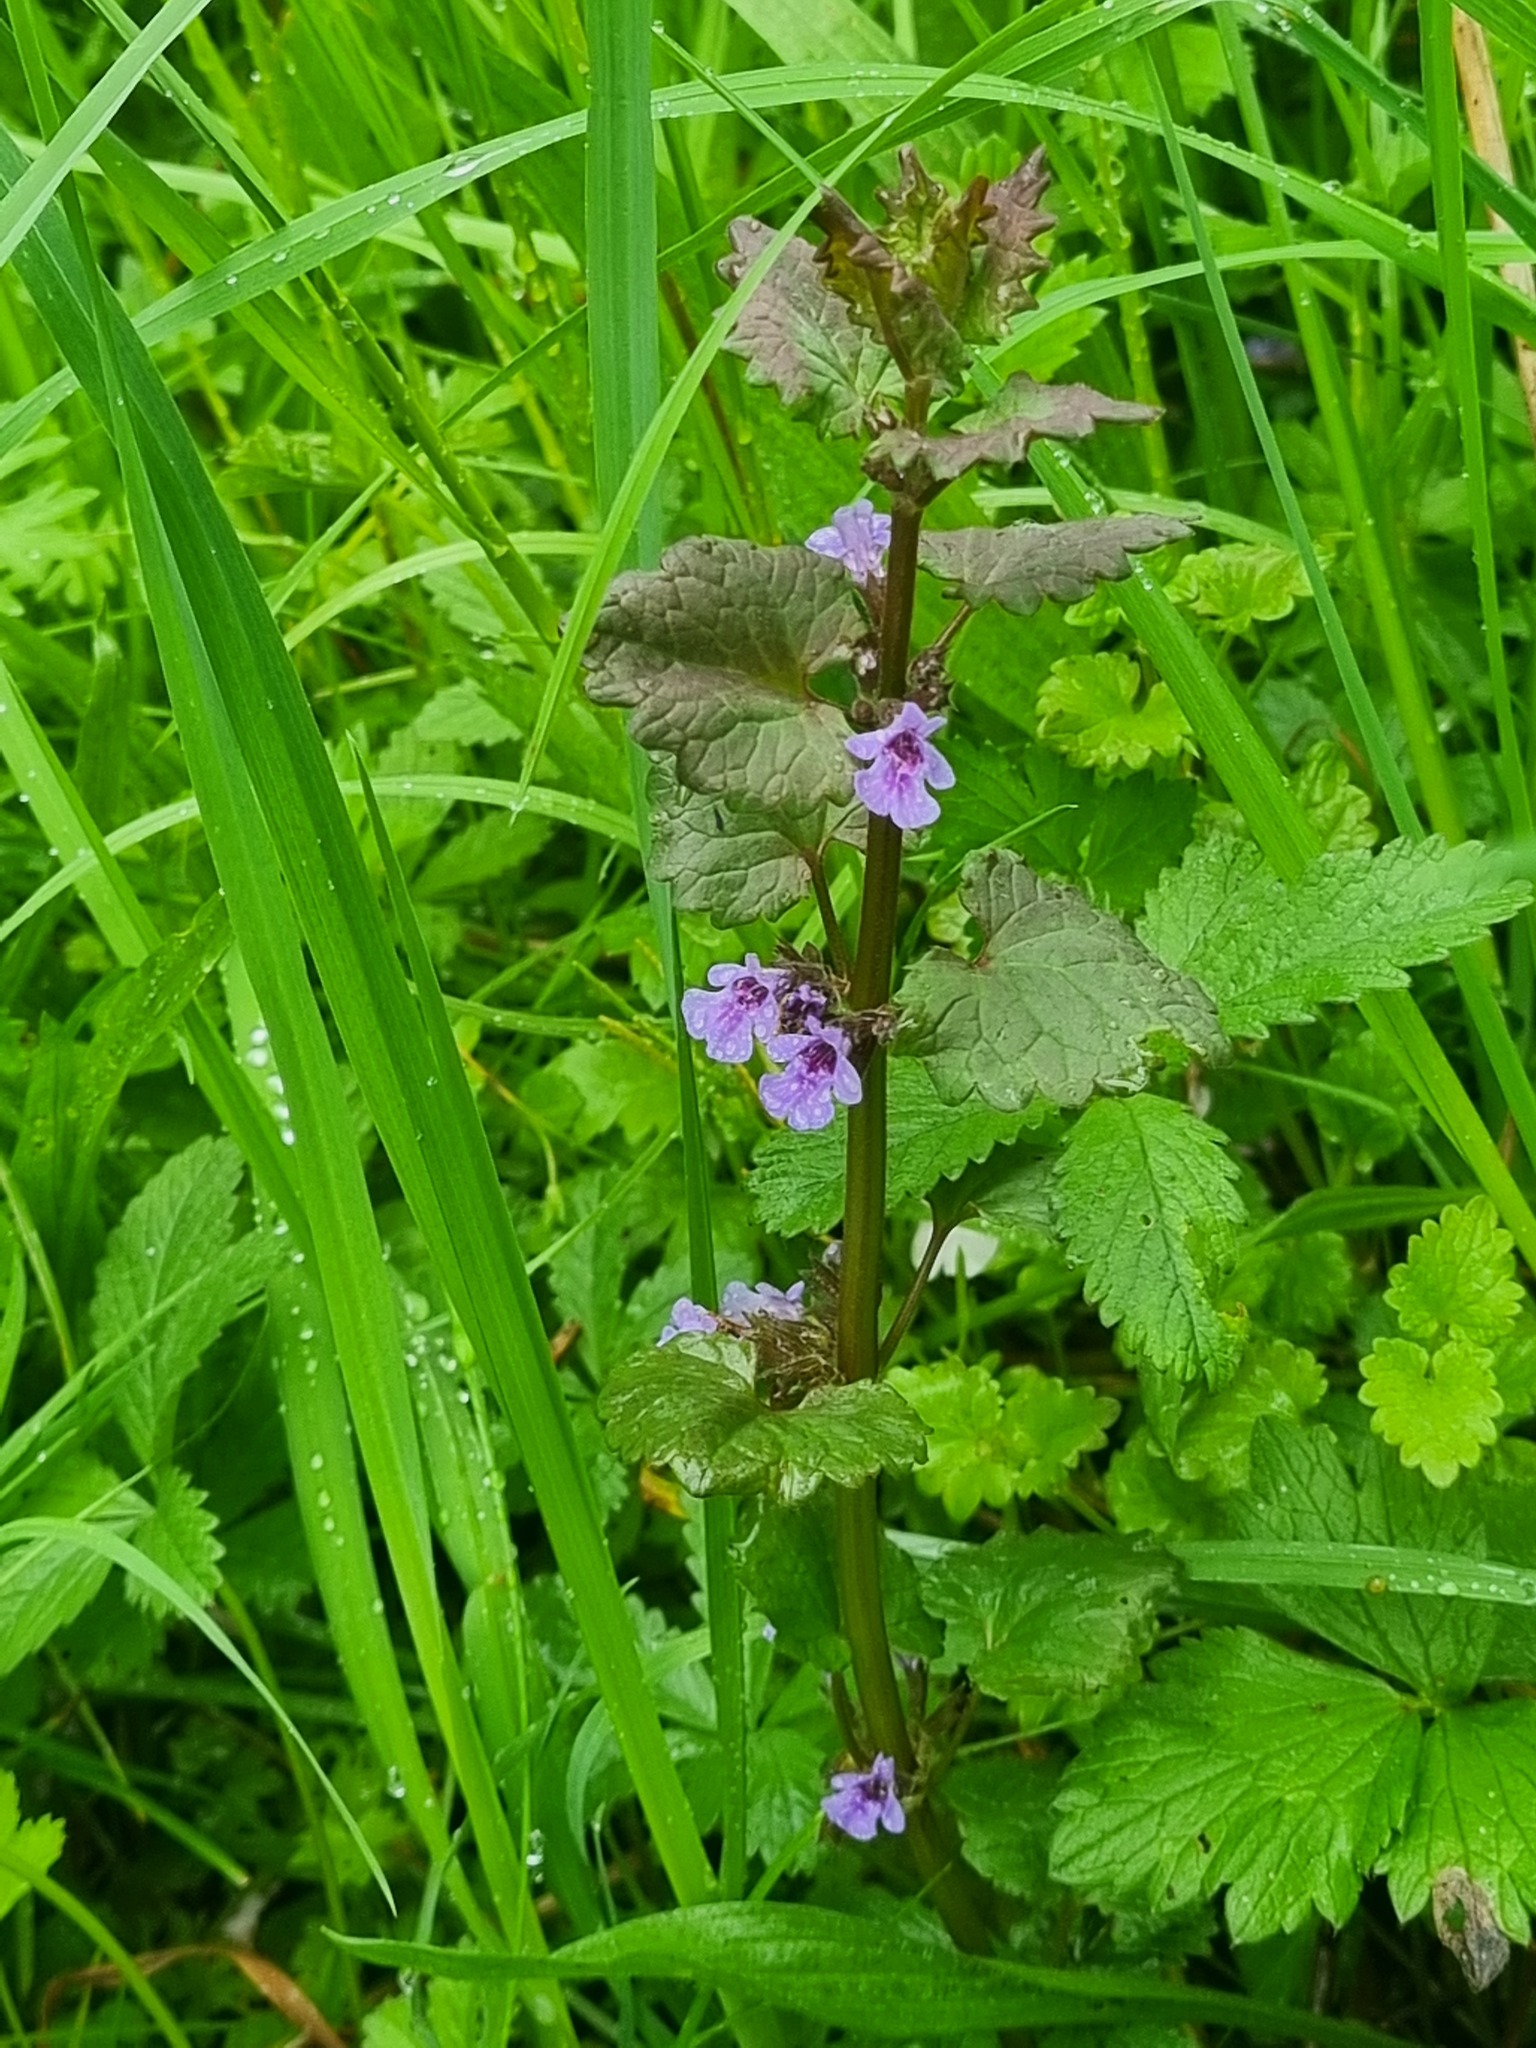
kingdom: Plantae
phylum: Tracheophyta
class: Magnoliopsida
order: Lamiales
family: Lamiaceae
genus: Glechoma
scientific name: Glechoma hederacea
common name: Ground ivy
